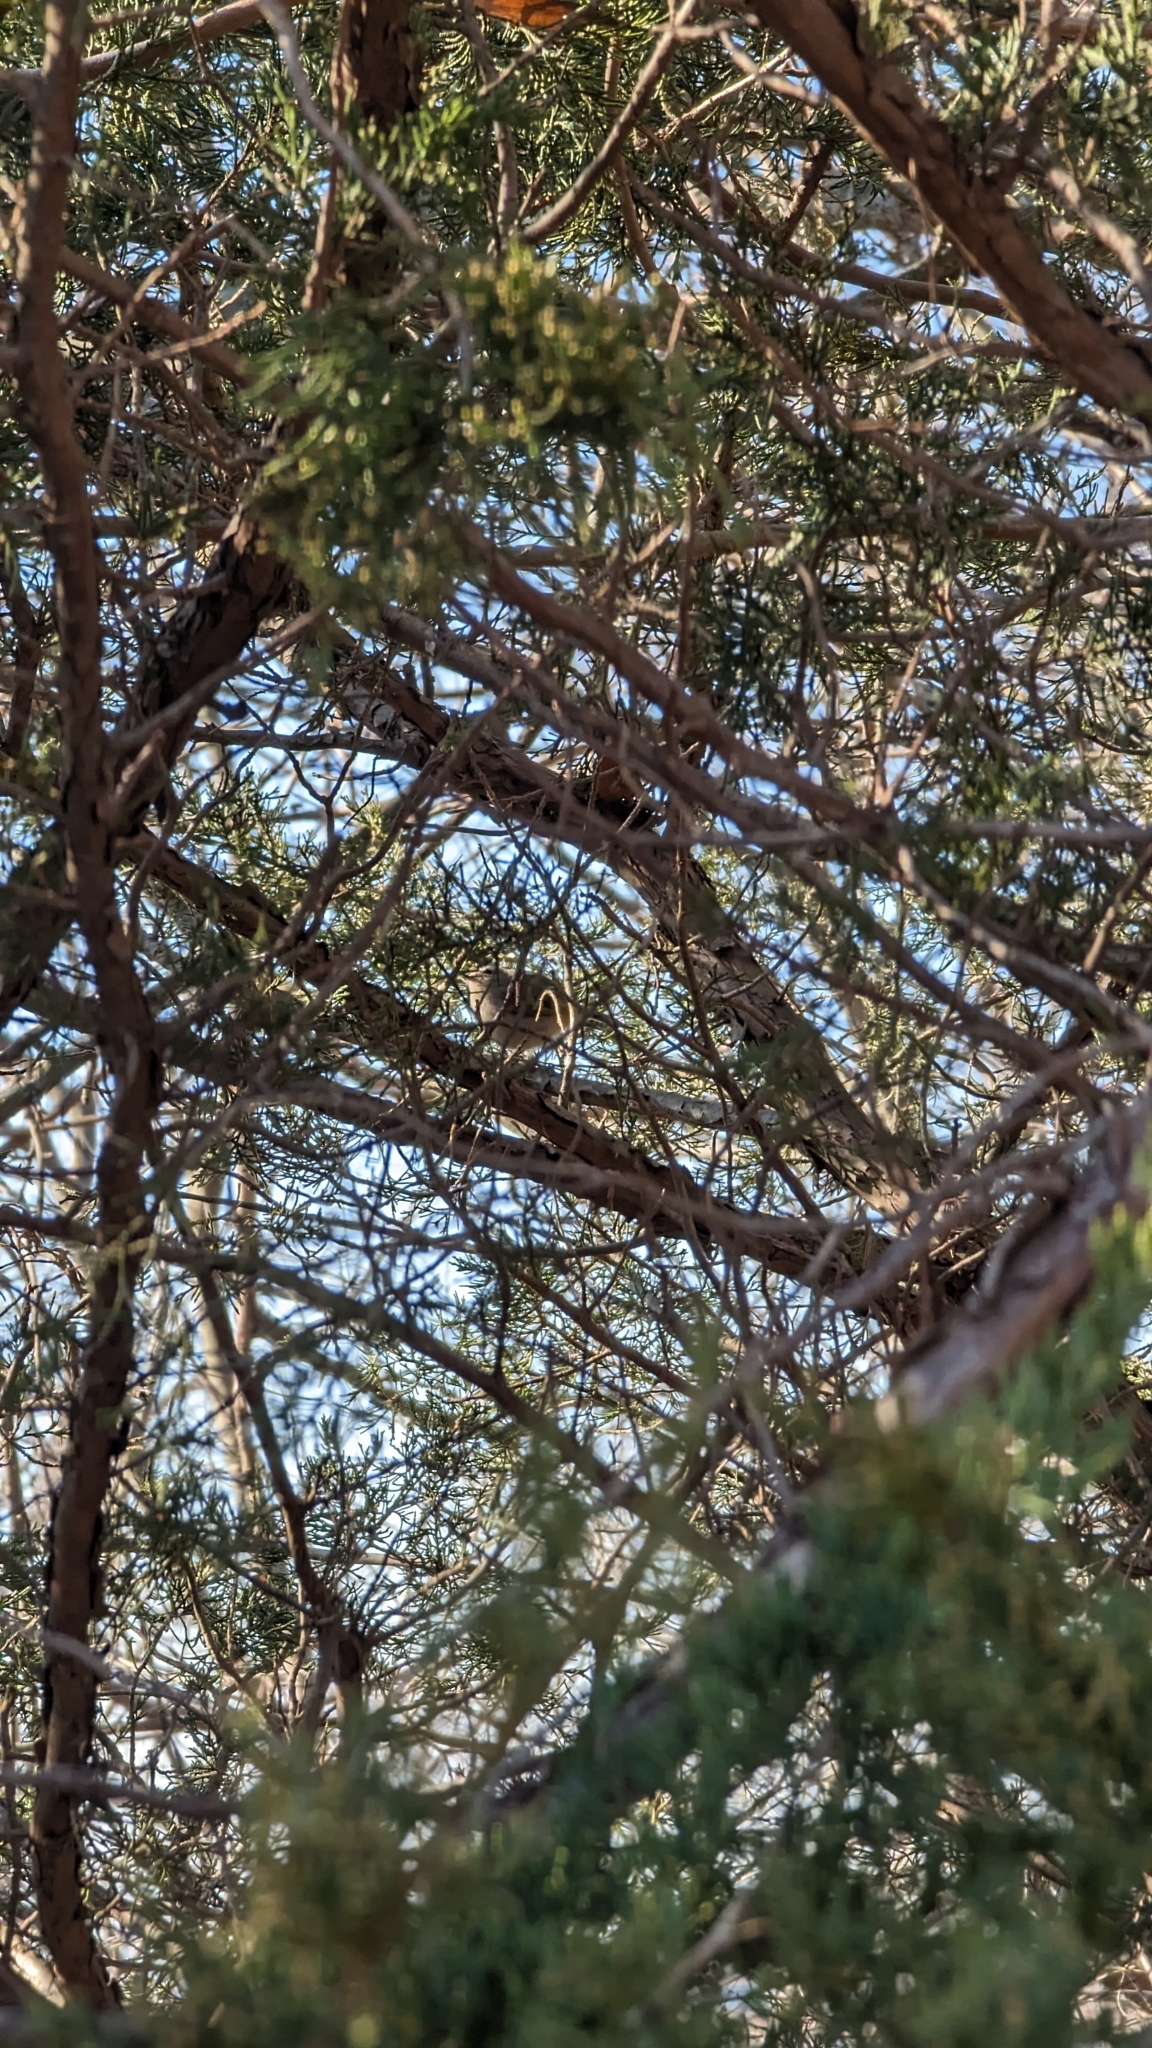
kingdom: Animalia
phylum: Chordata
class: Aves
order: Passeriformes
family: Regulidae
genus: Regulus
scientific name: Regulus satrapa
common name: Golden-crowned kinglet
